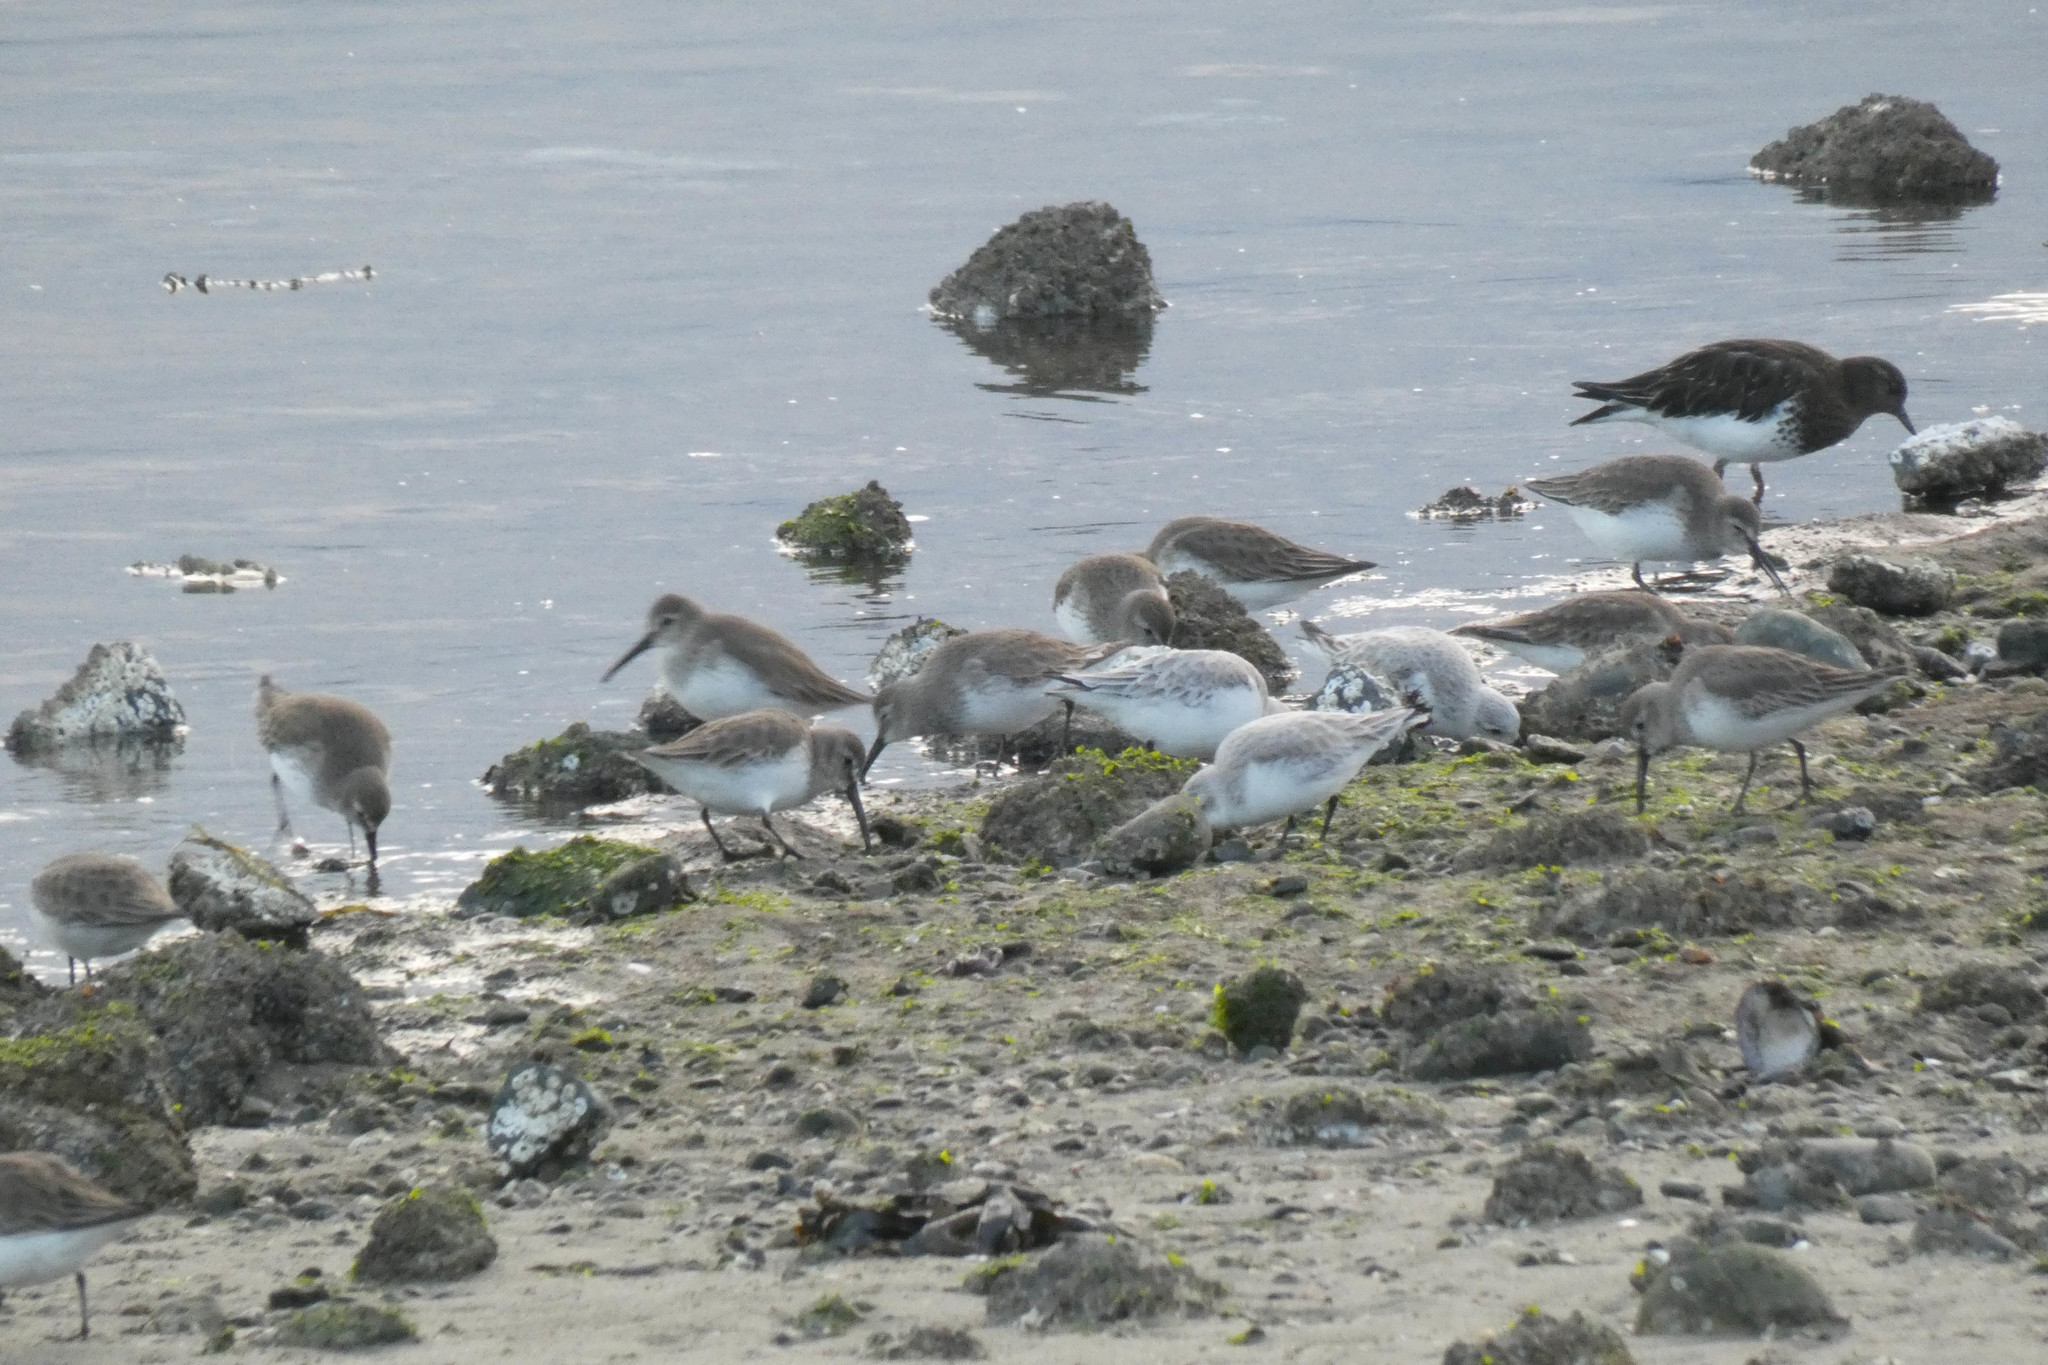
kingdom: Animalia
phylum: Chordata
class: Aves
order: Charadriiformes
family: Scolopacidae
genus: Calidris
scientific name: Calidris alpina
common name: Dunlin
